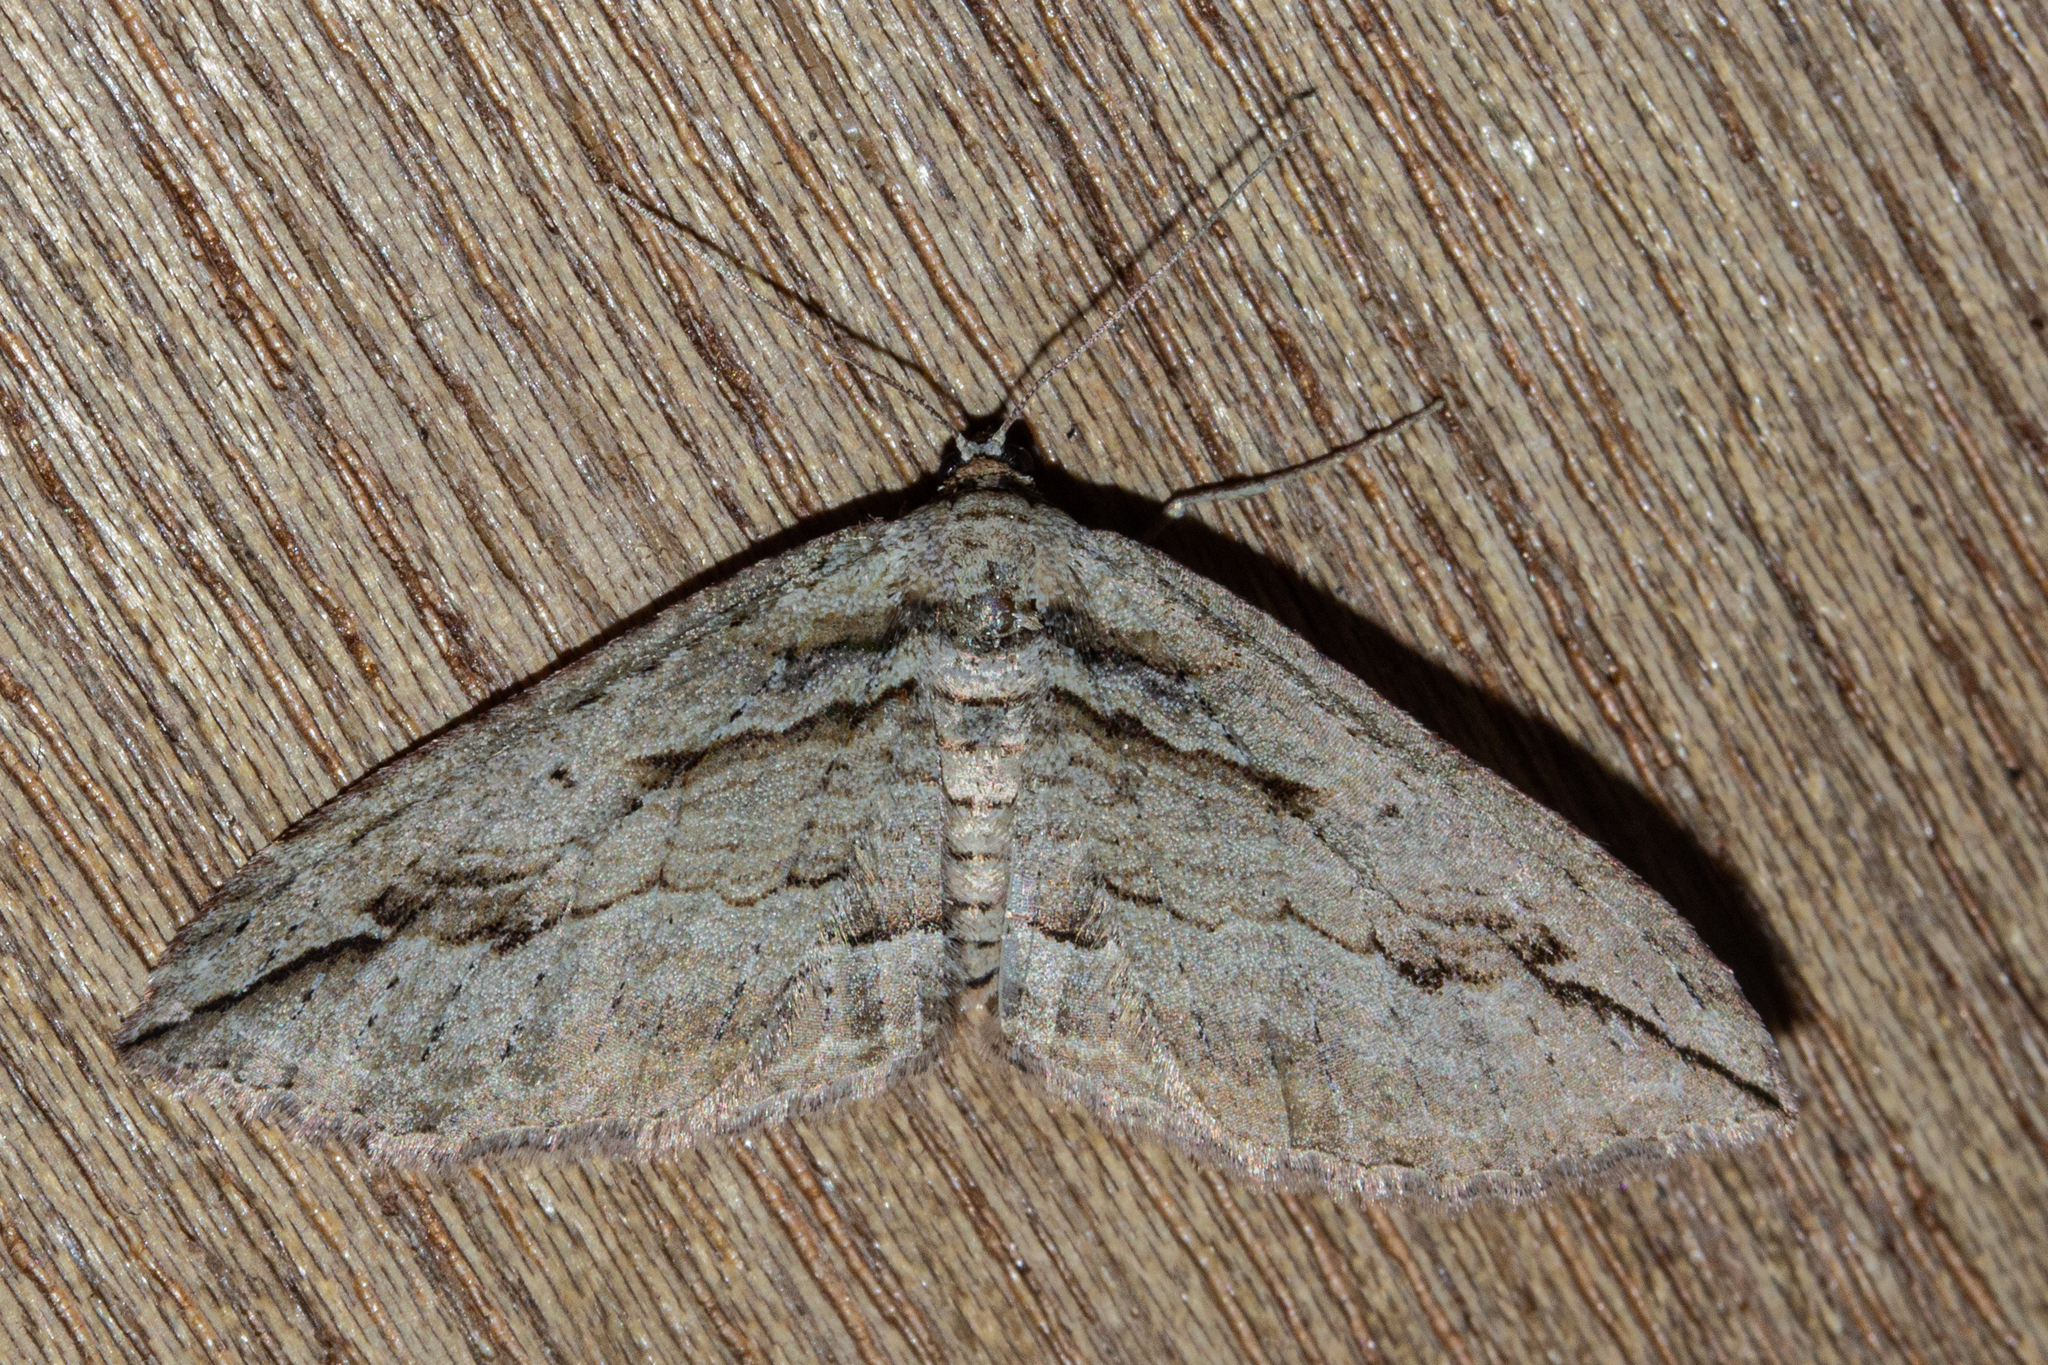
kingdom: Animalia
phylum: Arthropoda
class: Insecta
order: Lepidoptera
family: Geometridae
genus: Austrocidaria
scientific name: Austrocidaria gobiata
